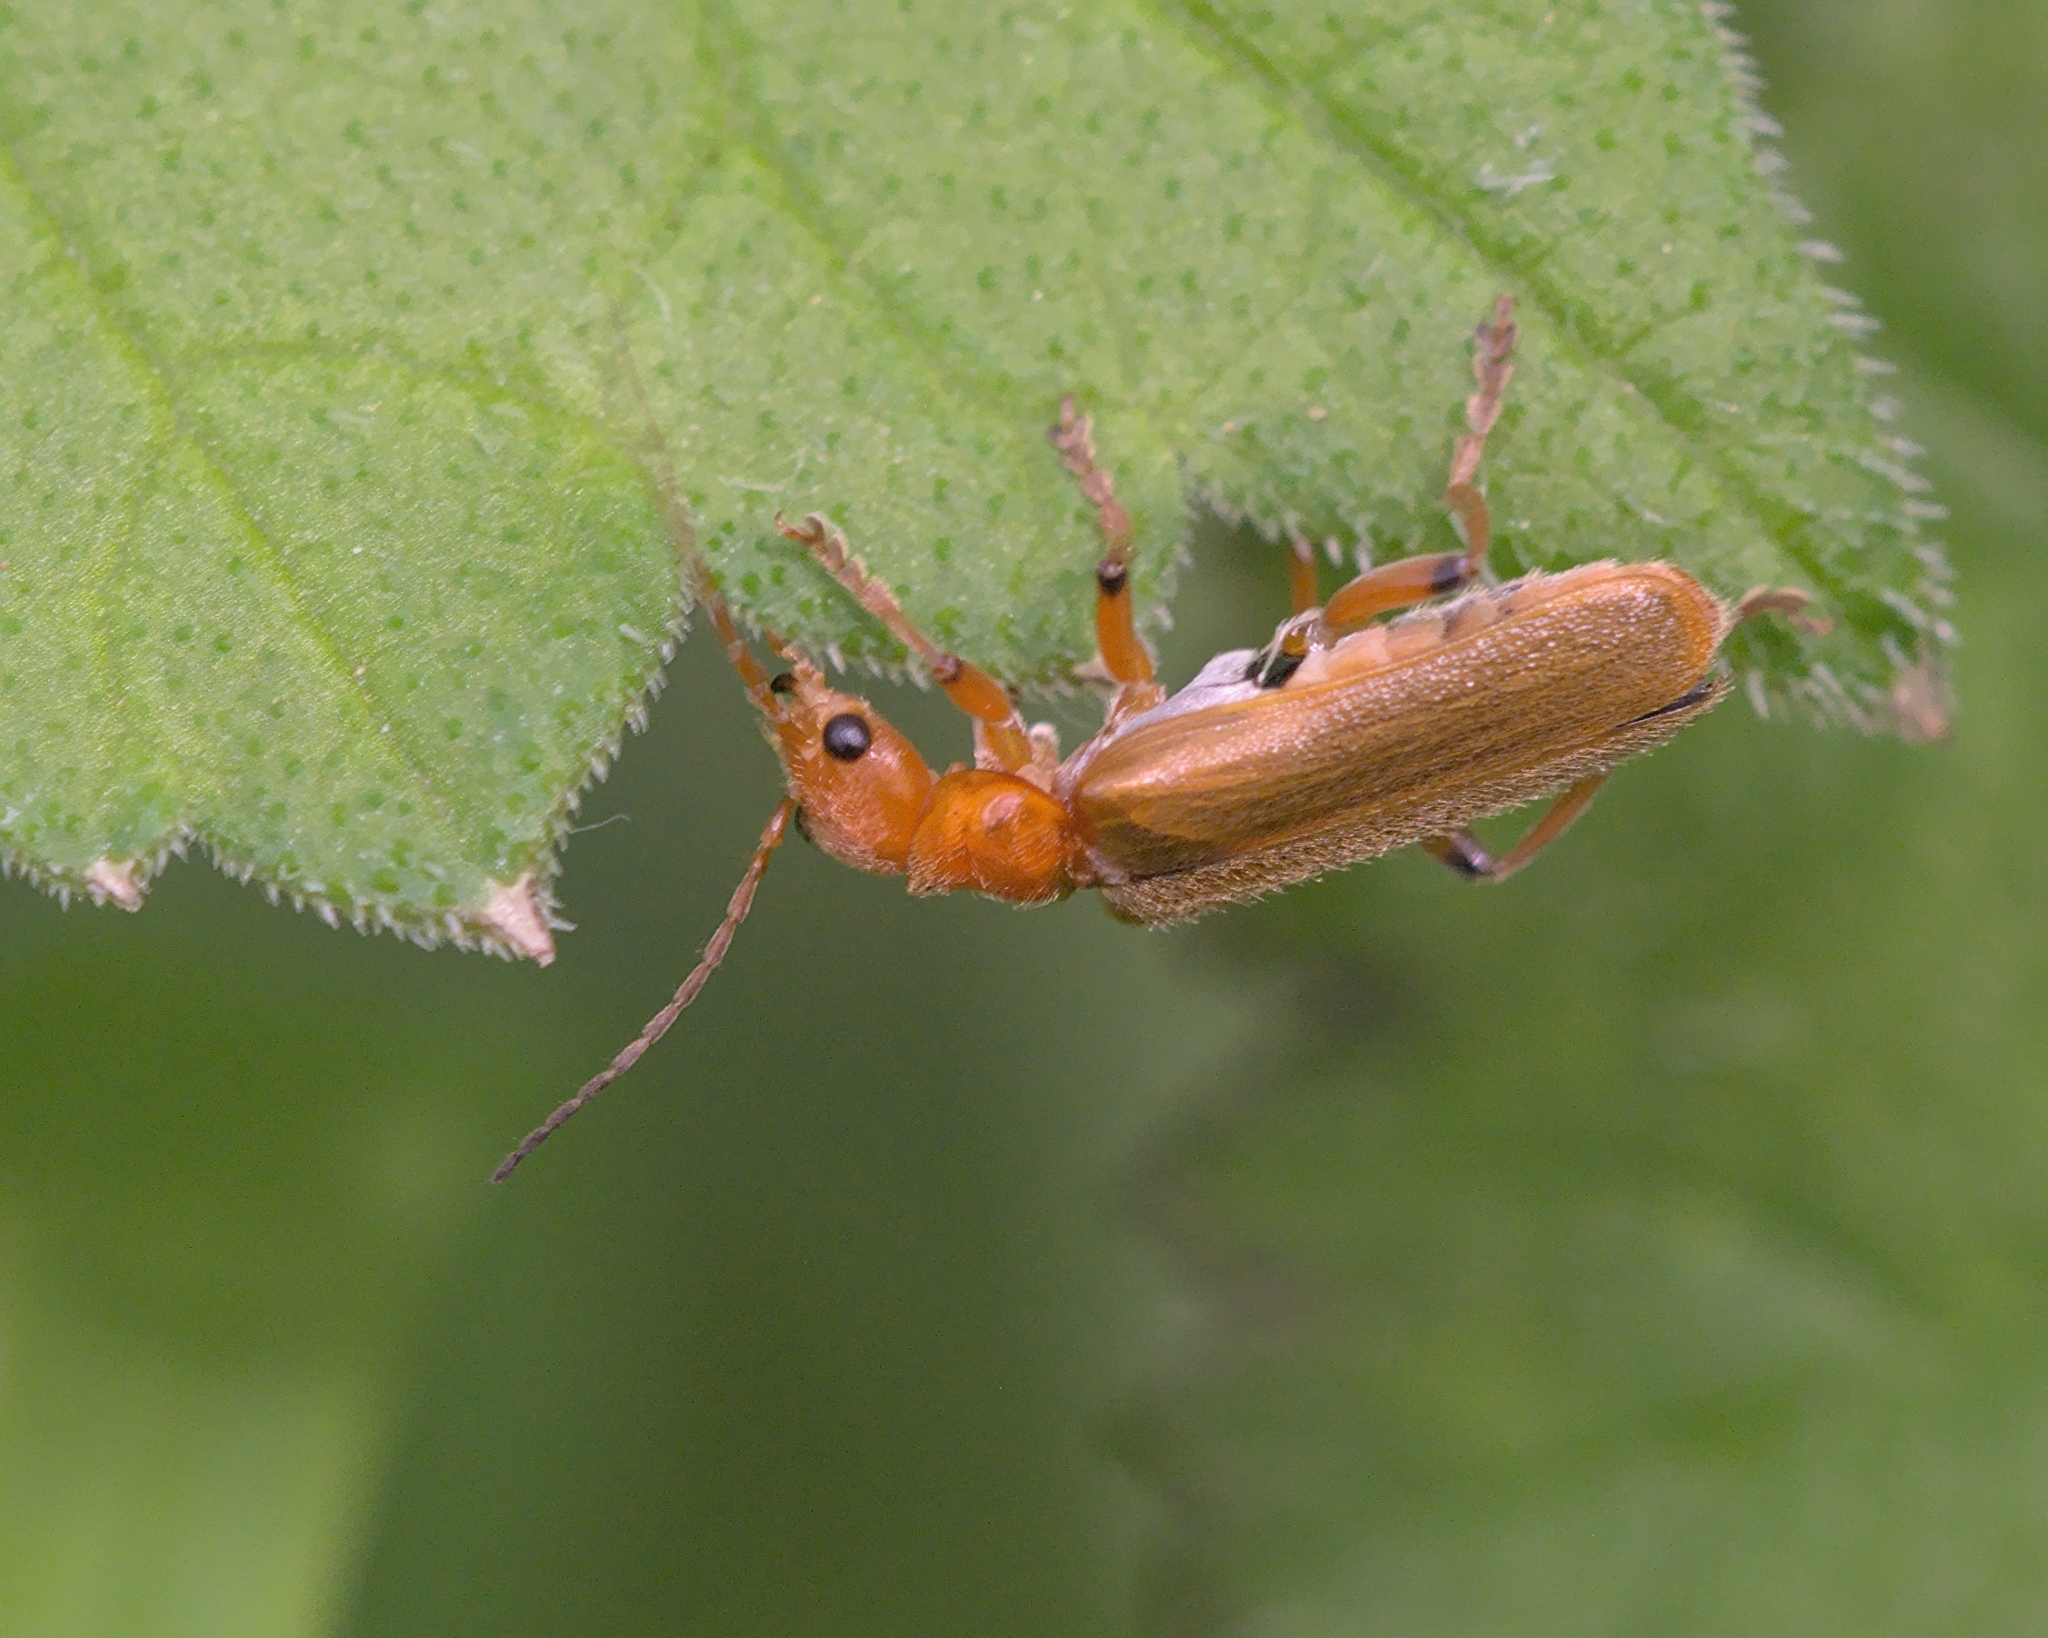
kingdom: Animalia
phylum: Arthropoda
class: Insecta
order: Coleoptera
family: Cantharidae
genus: Cantharis
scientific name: Cantharis cryptica
